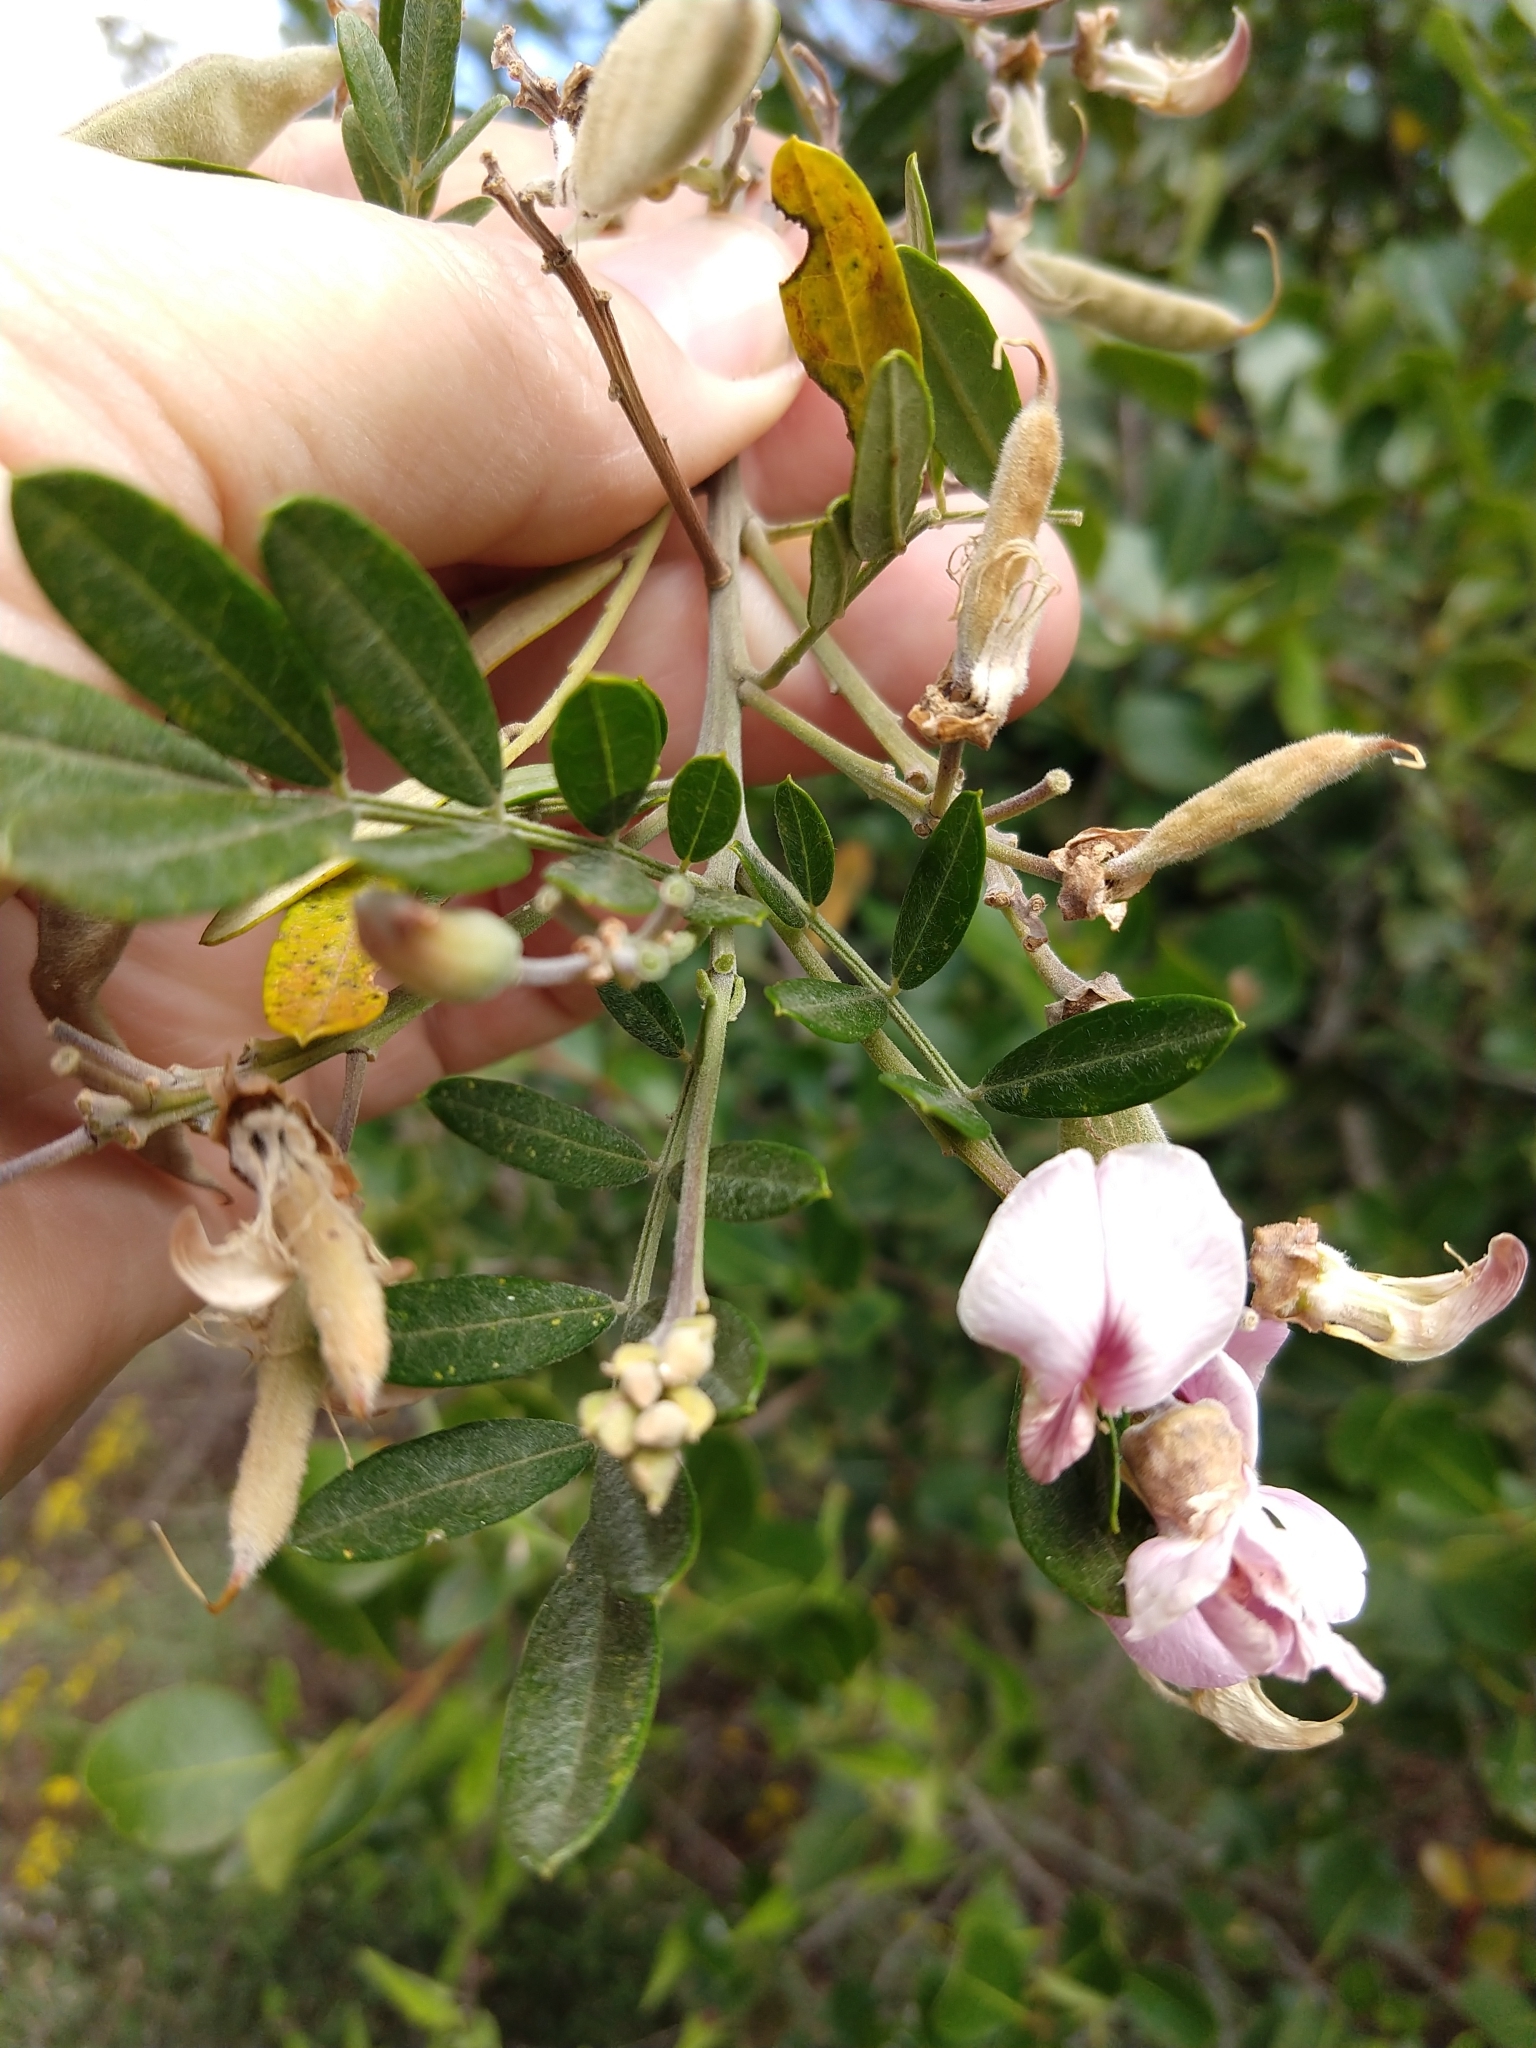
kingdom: Plantae
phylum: Tracheophyta
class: Magnoliopsida
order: Fabales
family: Fabaceae
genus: Virgilia
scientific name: Virgilia oroboides
